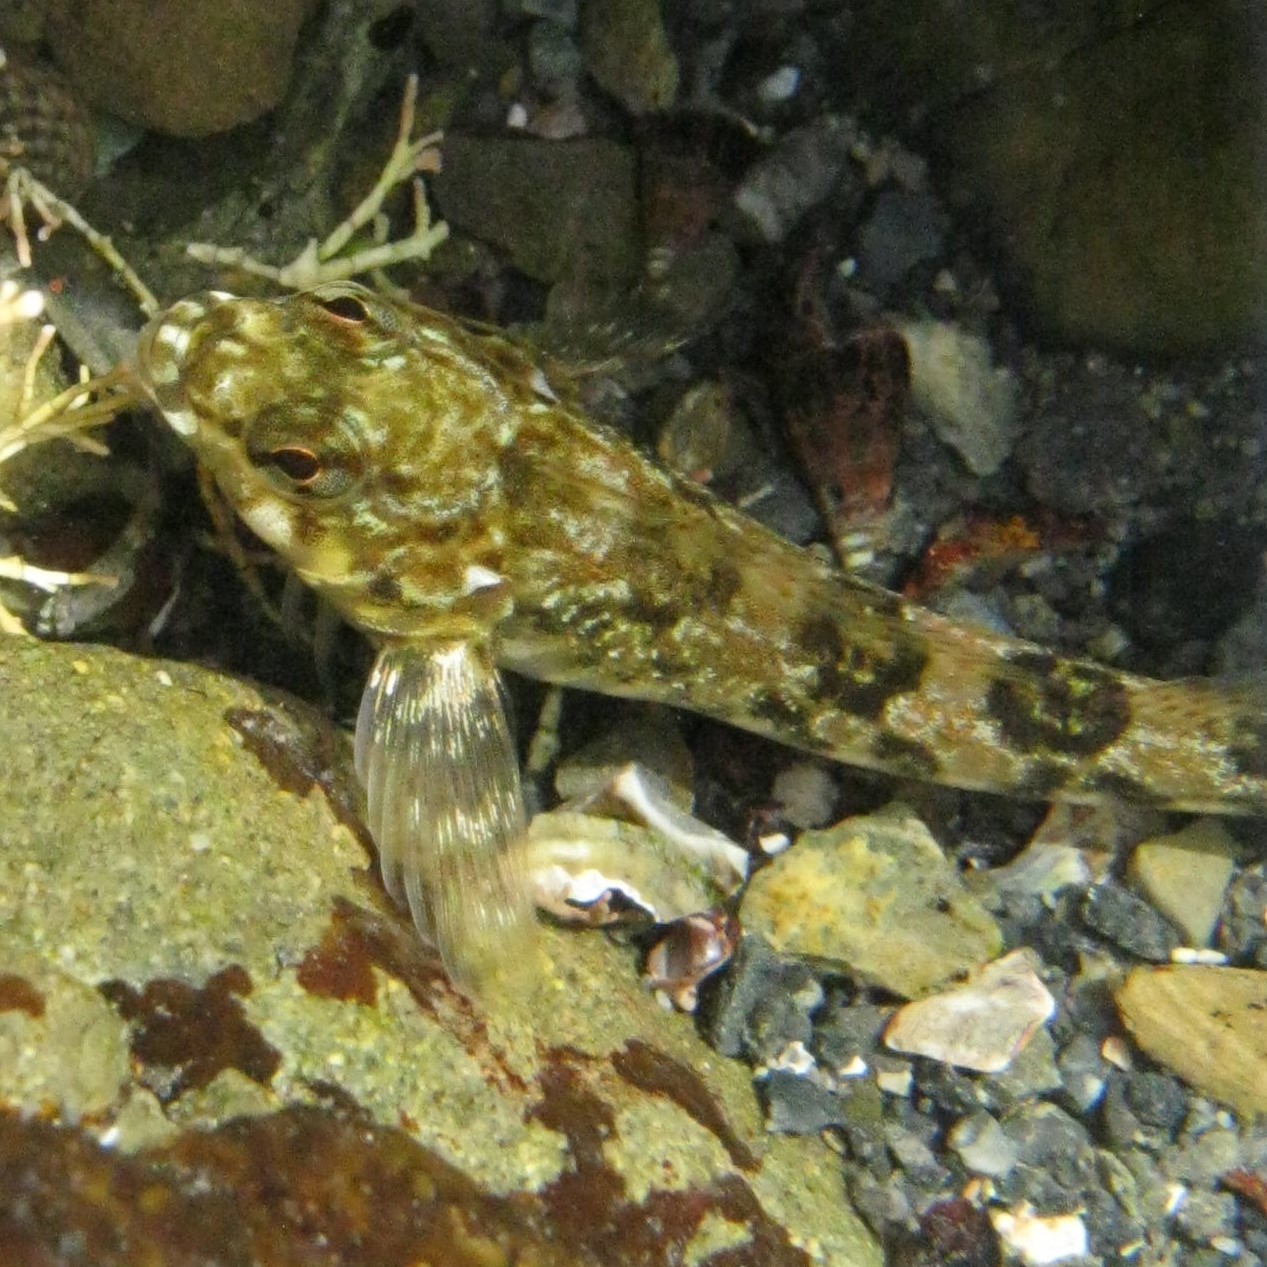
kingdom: Animalia
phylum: Chordata
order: Perciformes
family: Tripterygiidae
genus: Bellapiscis
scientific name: Bellapiscis medius
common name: Twister
